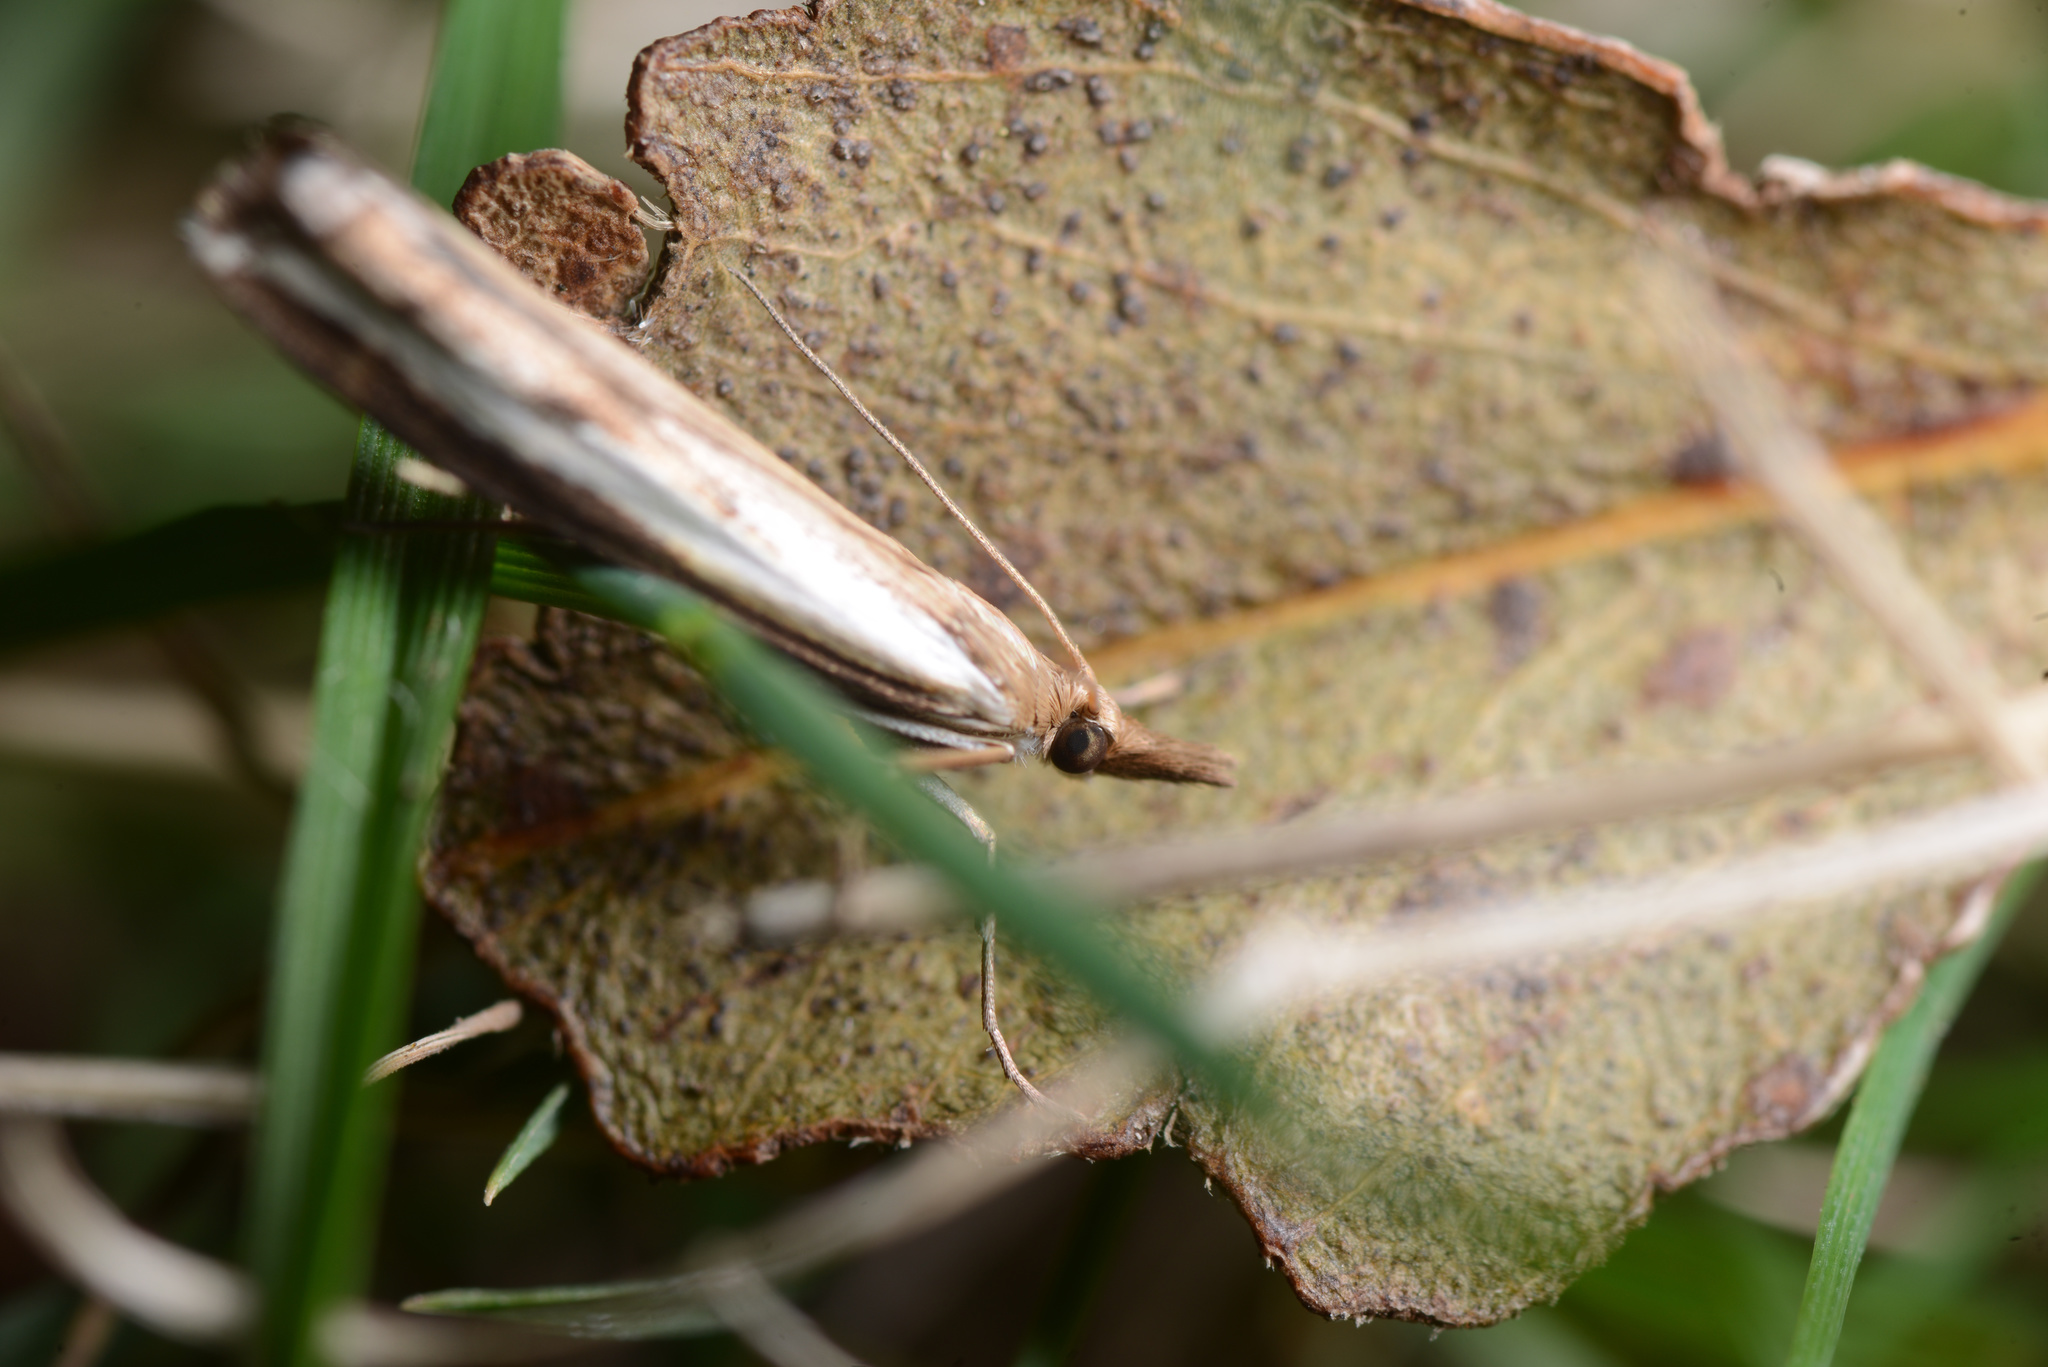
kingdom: Animalia
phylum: Arthropoda
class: Insecta
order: Lepidoptera
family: Crambidae
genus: Orocrambus
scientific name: Orocrambus flexuosellus
